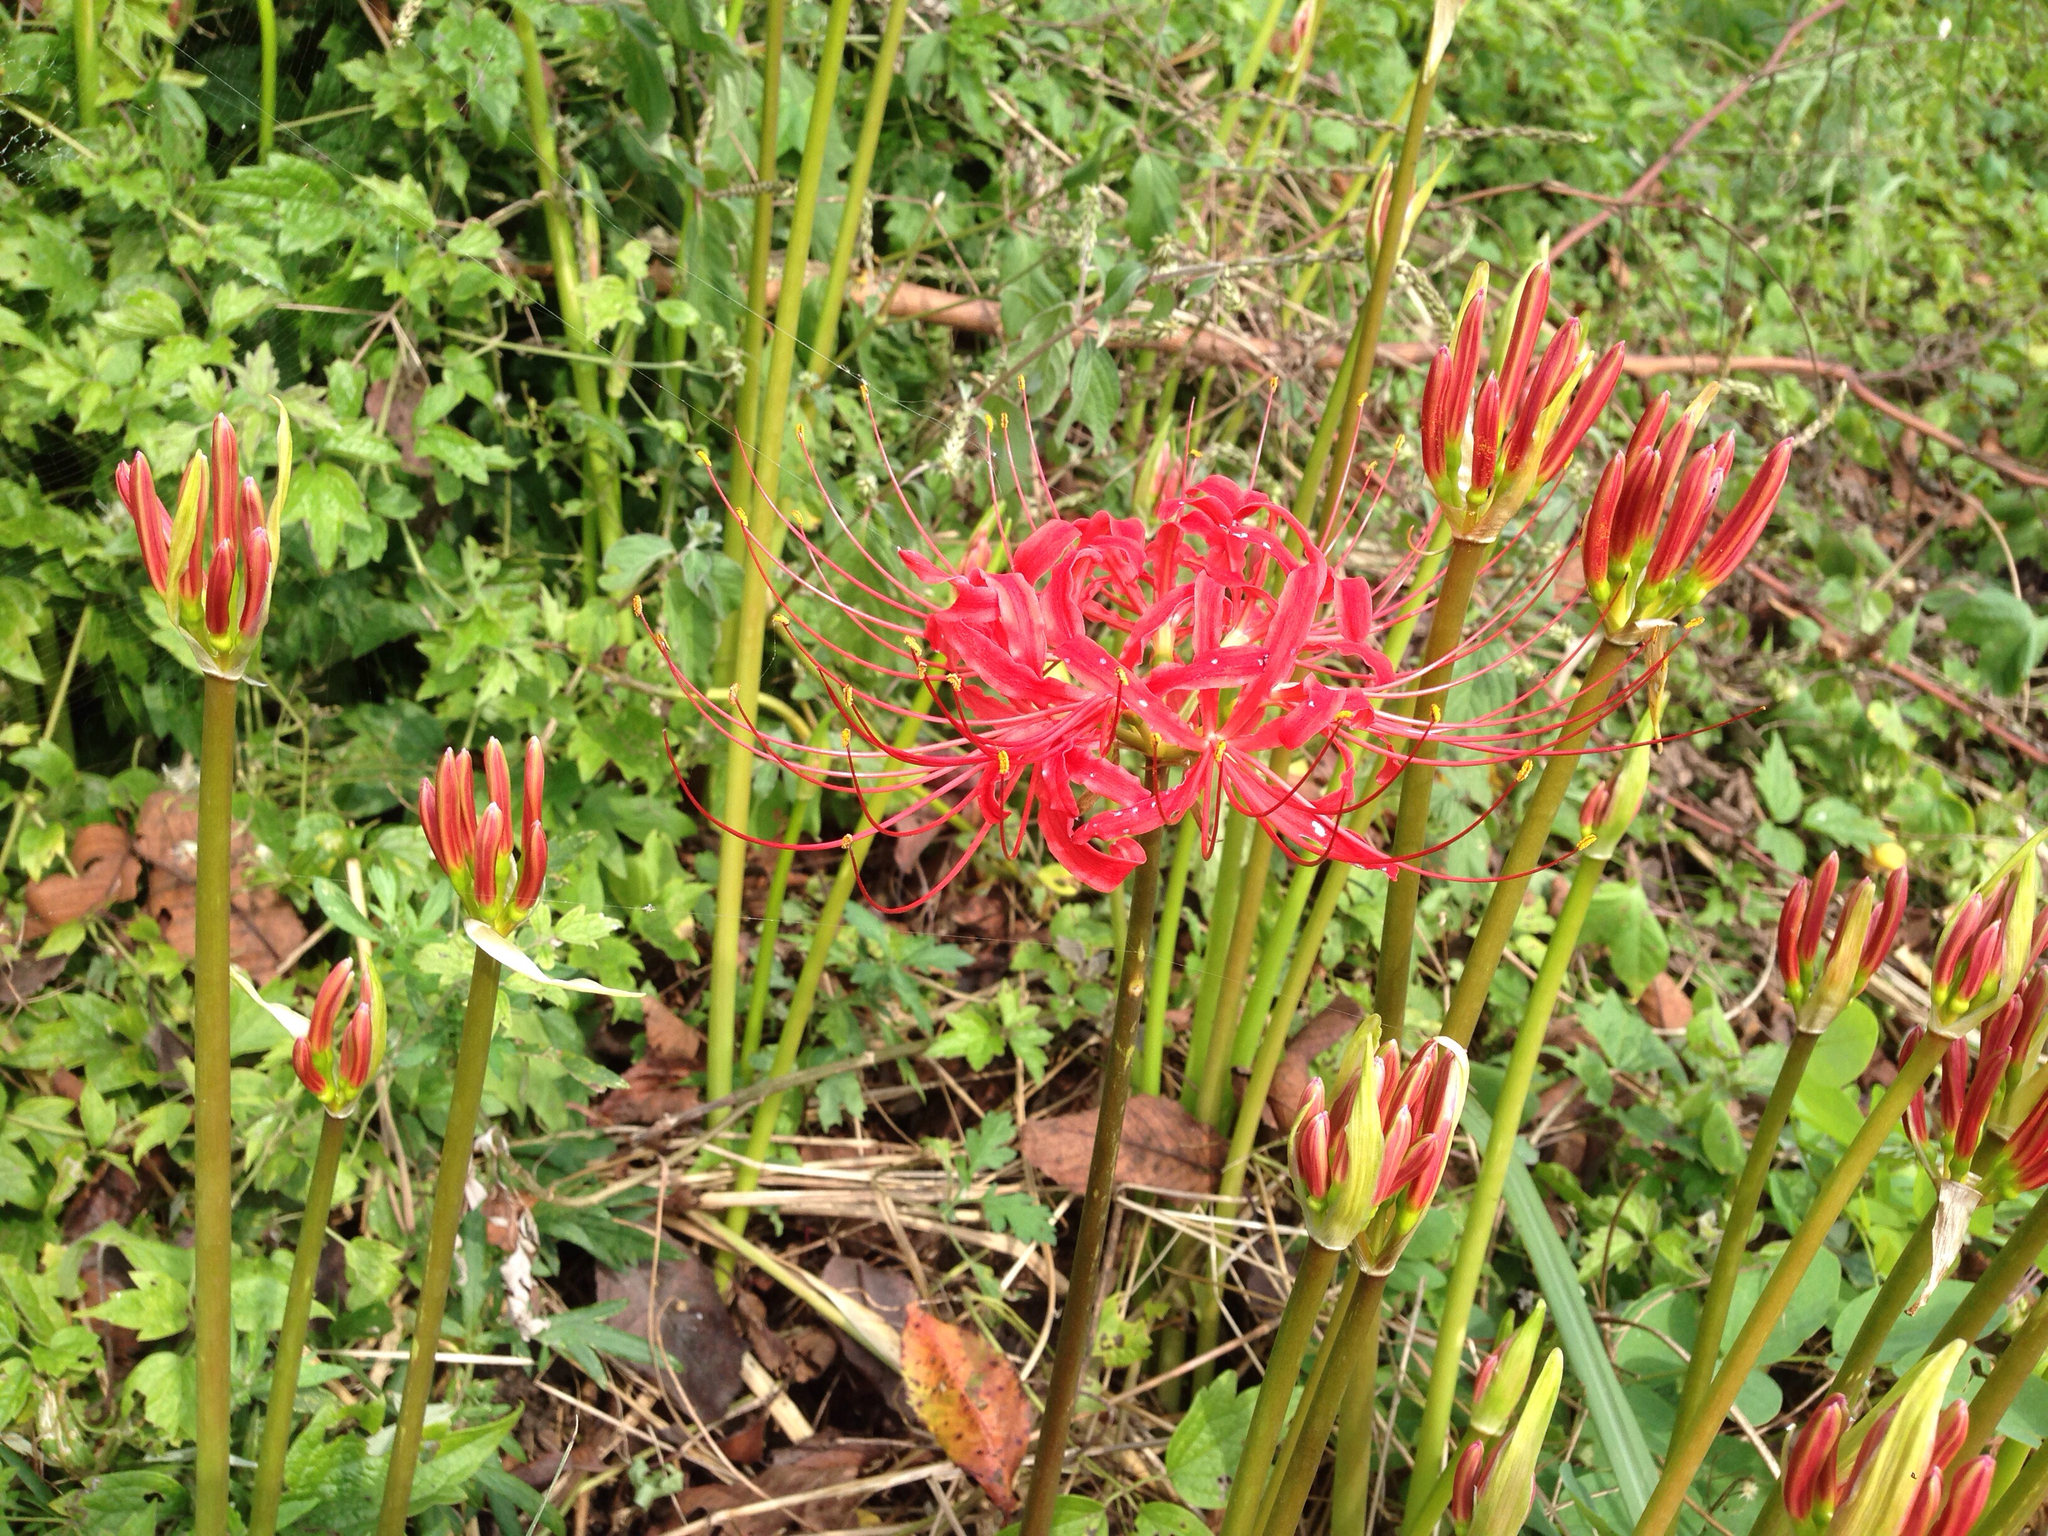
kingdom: Plantae
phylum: Tracheophyta
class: Liliopsida
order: Asparagales
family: Amaryllidaceae
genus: Lycoris
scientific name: Lycoris radiata
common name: Red spider lily
